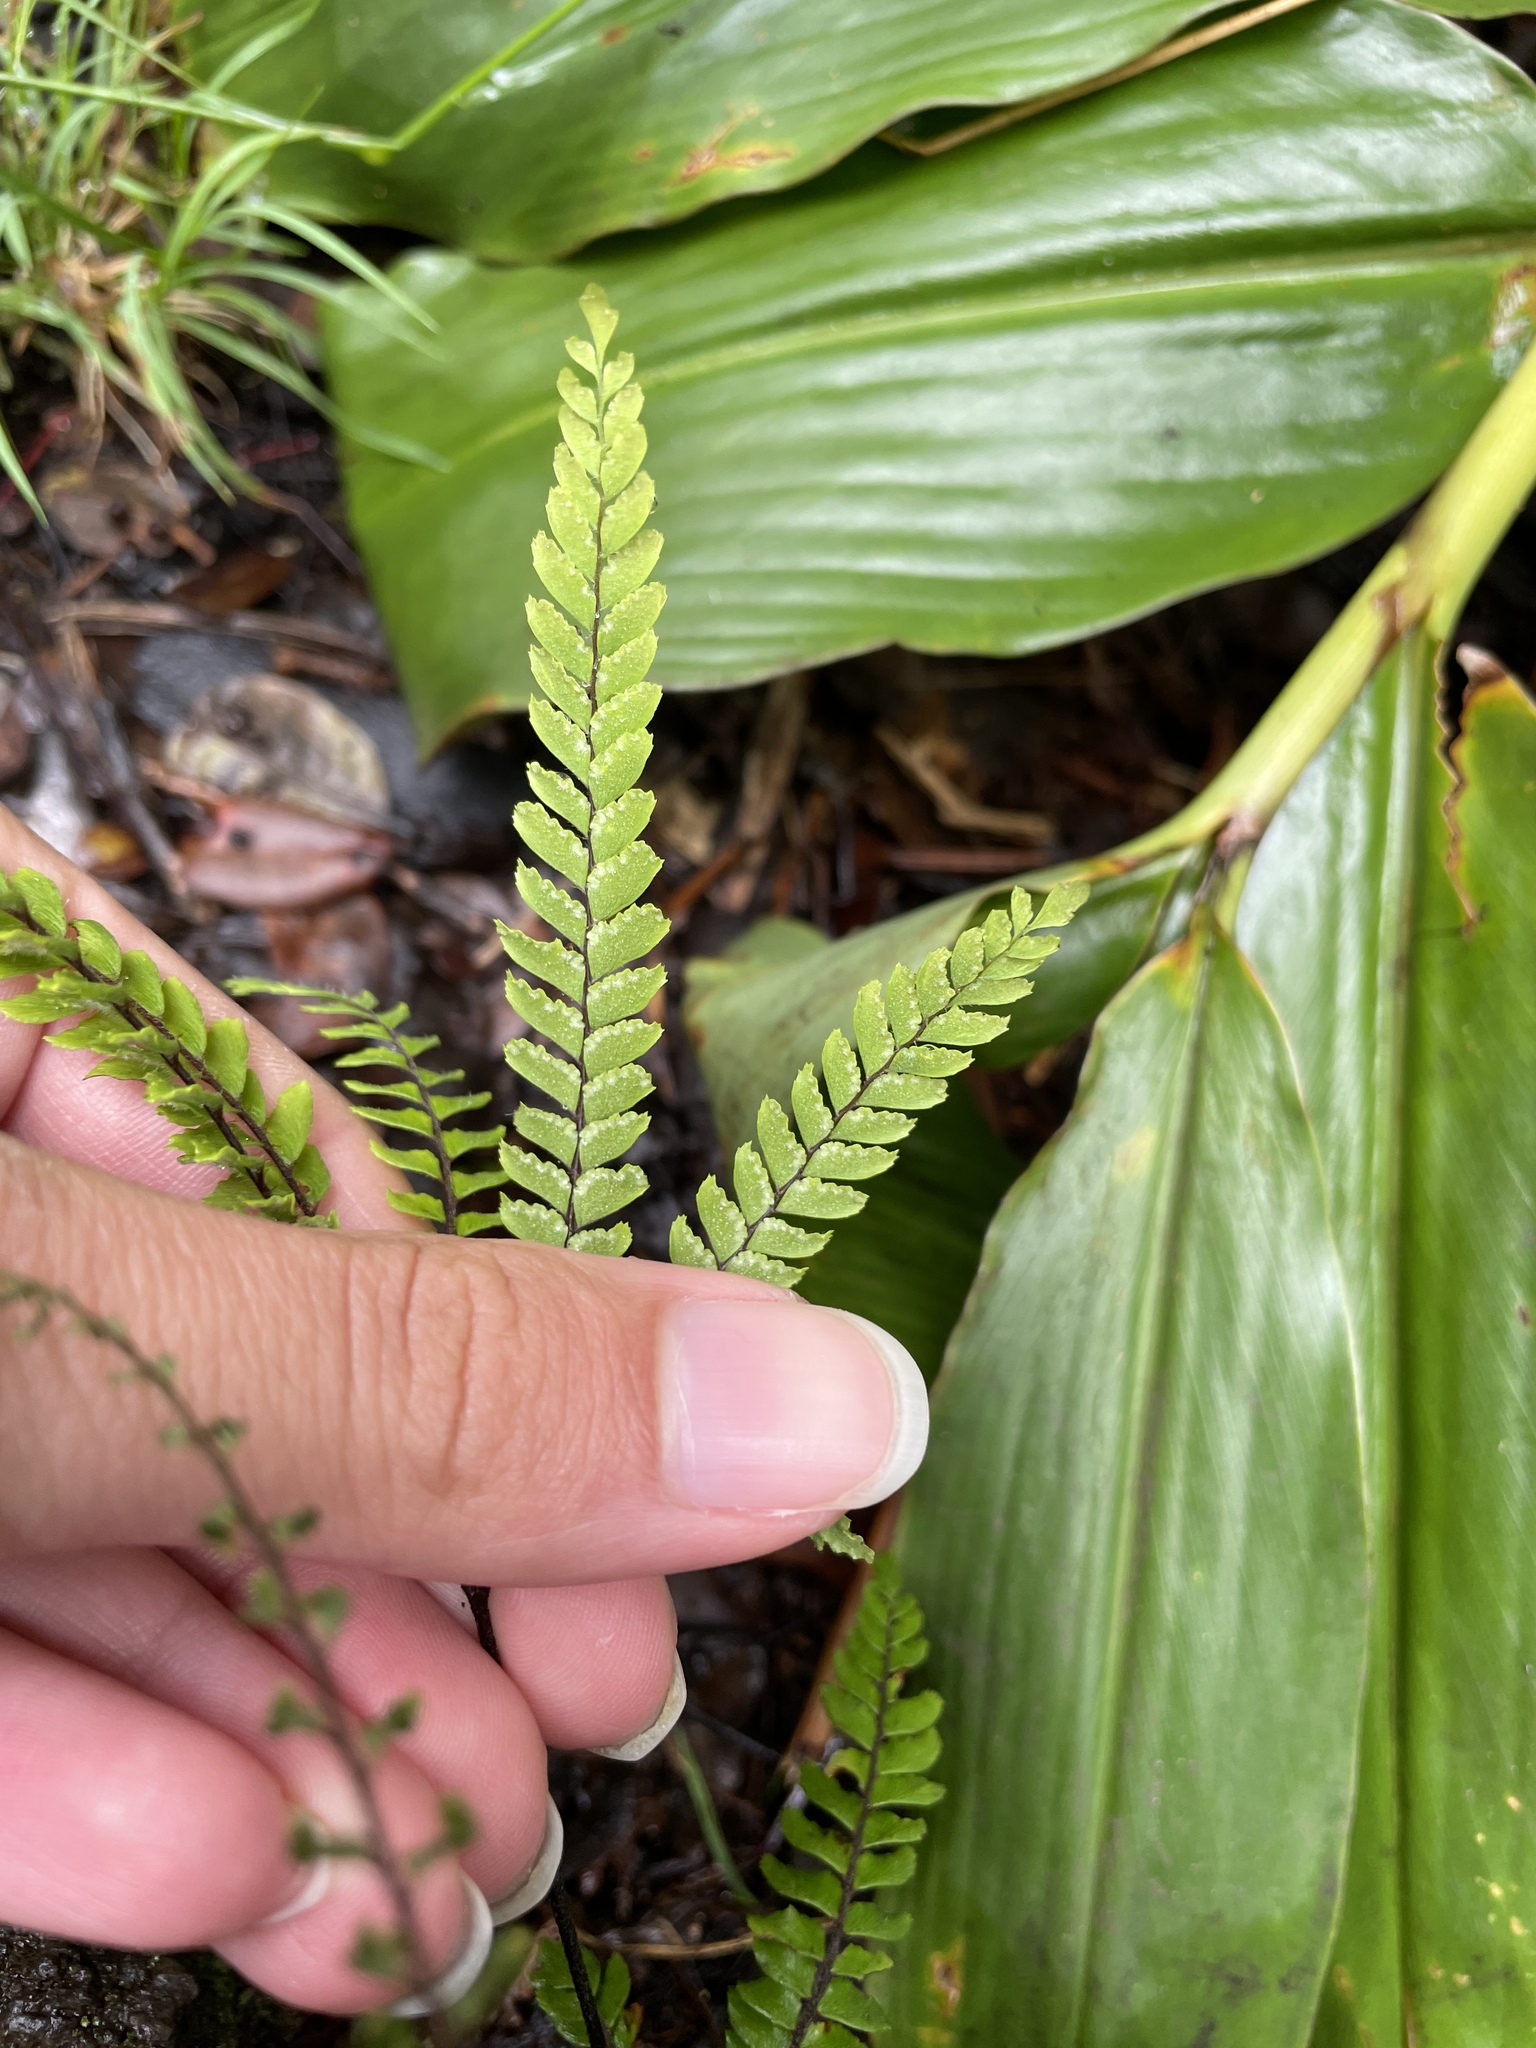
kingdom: Plantae
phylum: Tracheophyta
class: Polypodiopsida
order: Polypodiales
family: Pteridaceae
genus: Adiantum
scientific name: Adiantum hispidulum
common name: Rough maidenhair
